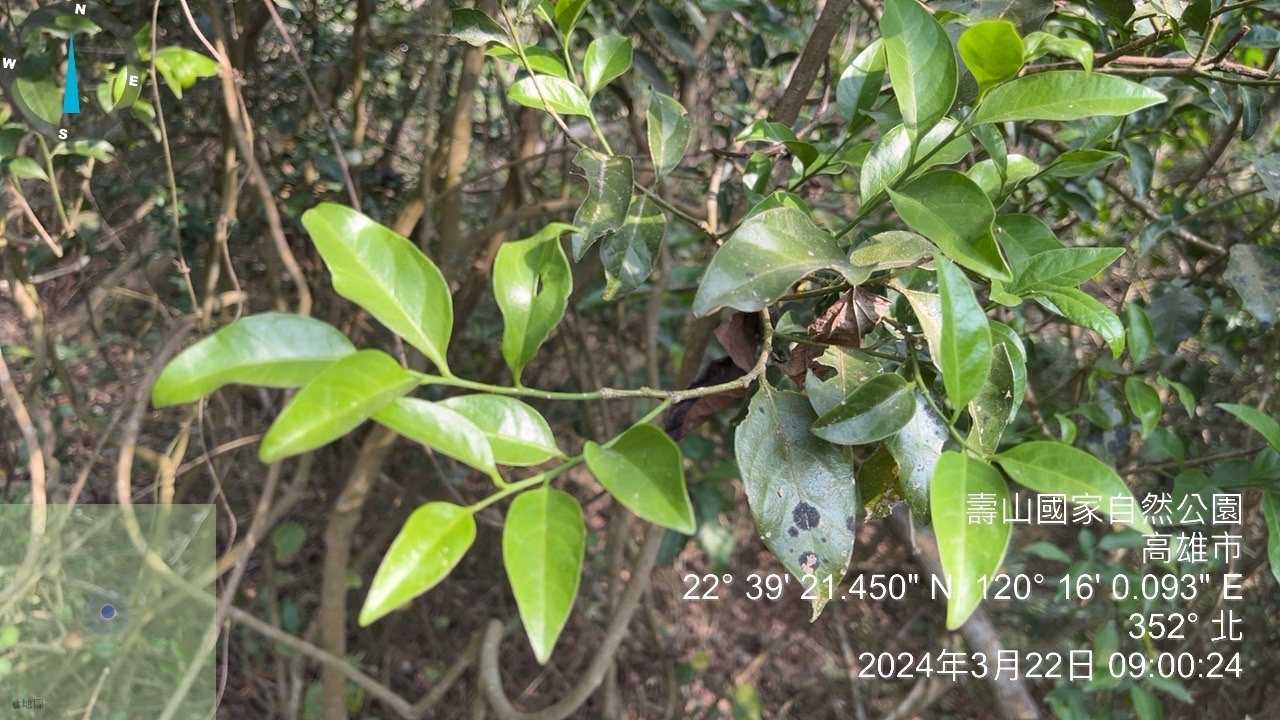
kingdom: Plantae
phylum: Tracheophyta
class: Magnoliopsida
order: Santalales
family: Opiliaceae
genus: Champereia
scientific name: Champereia manillana
